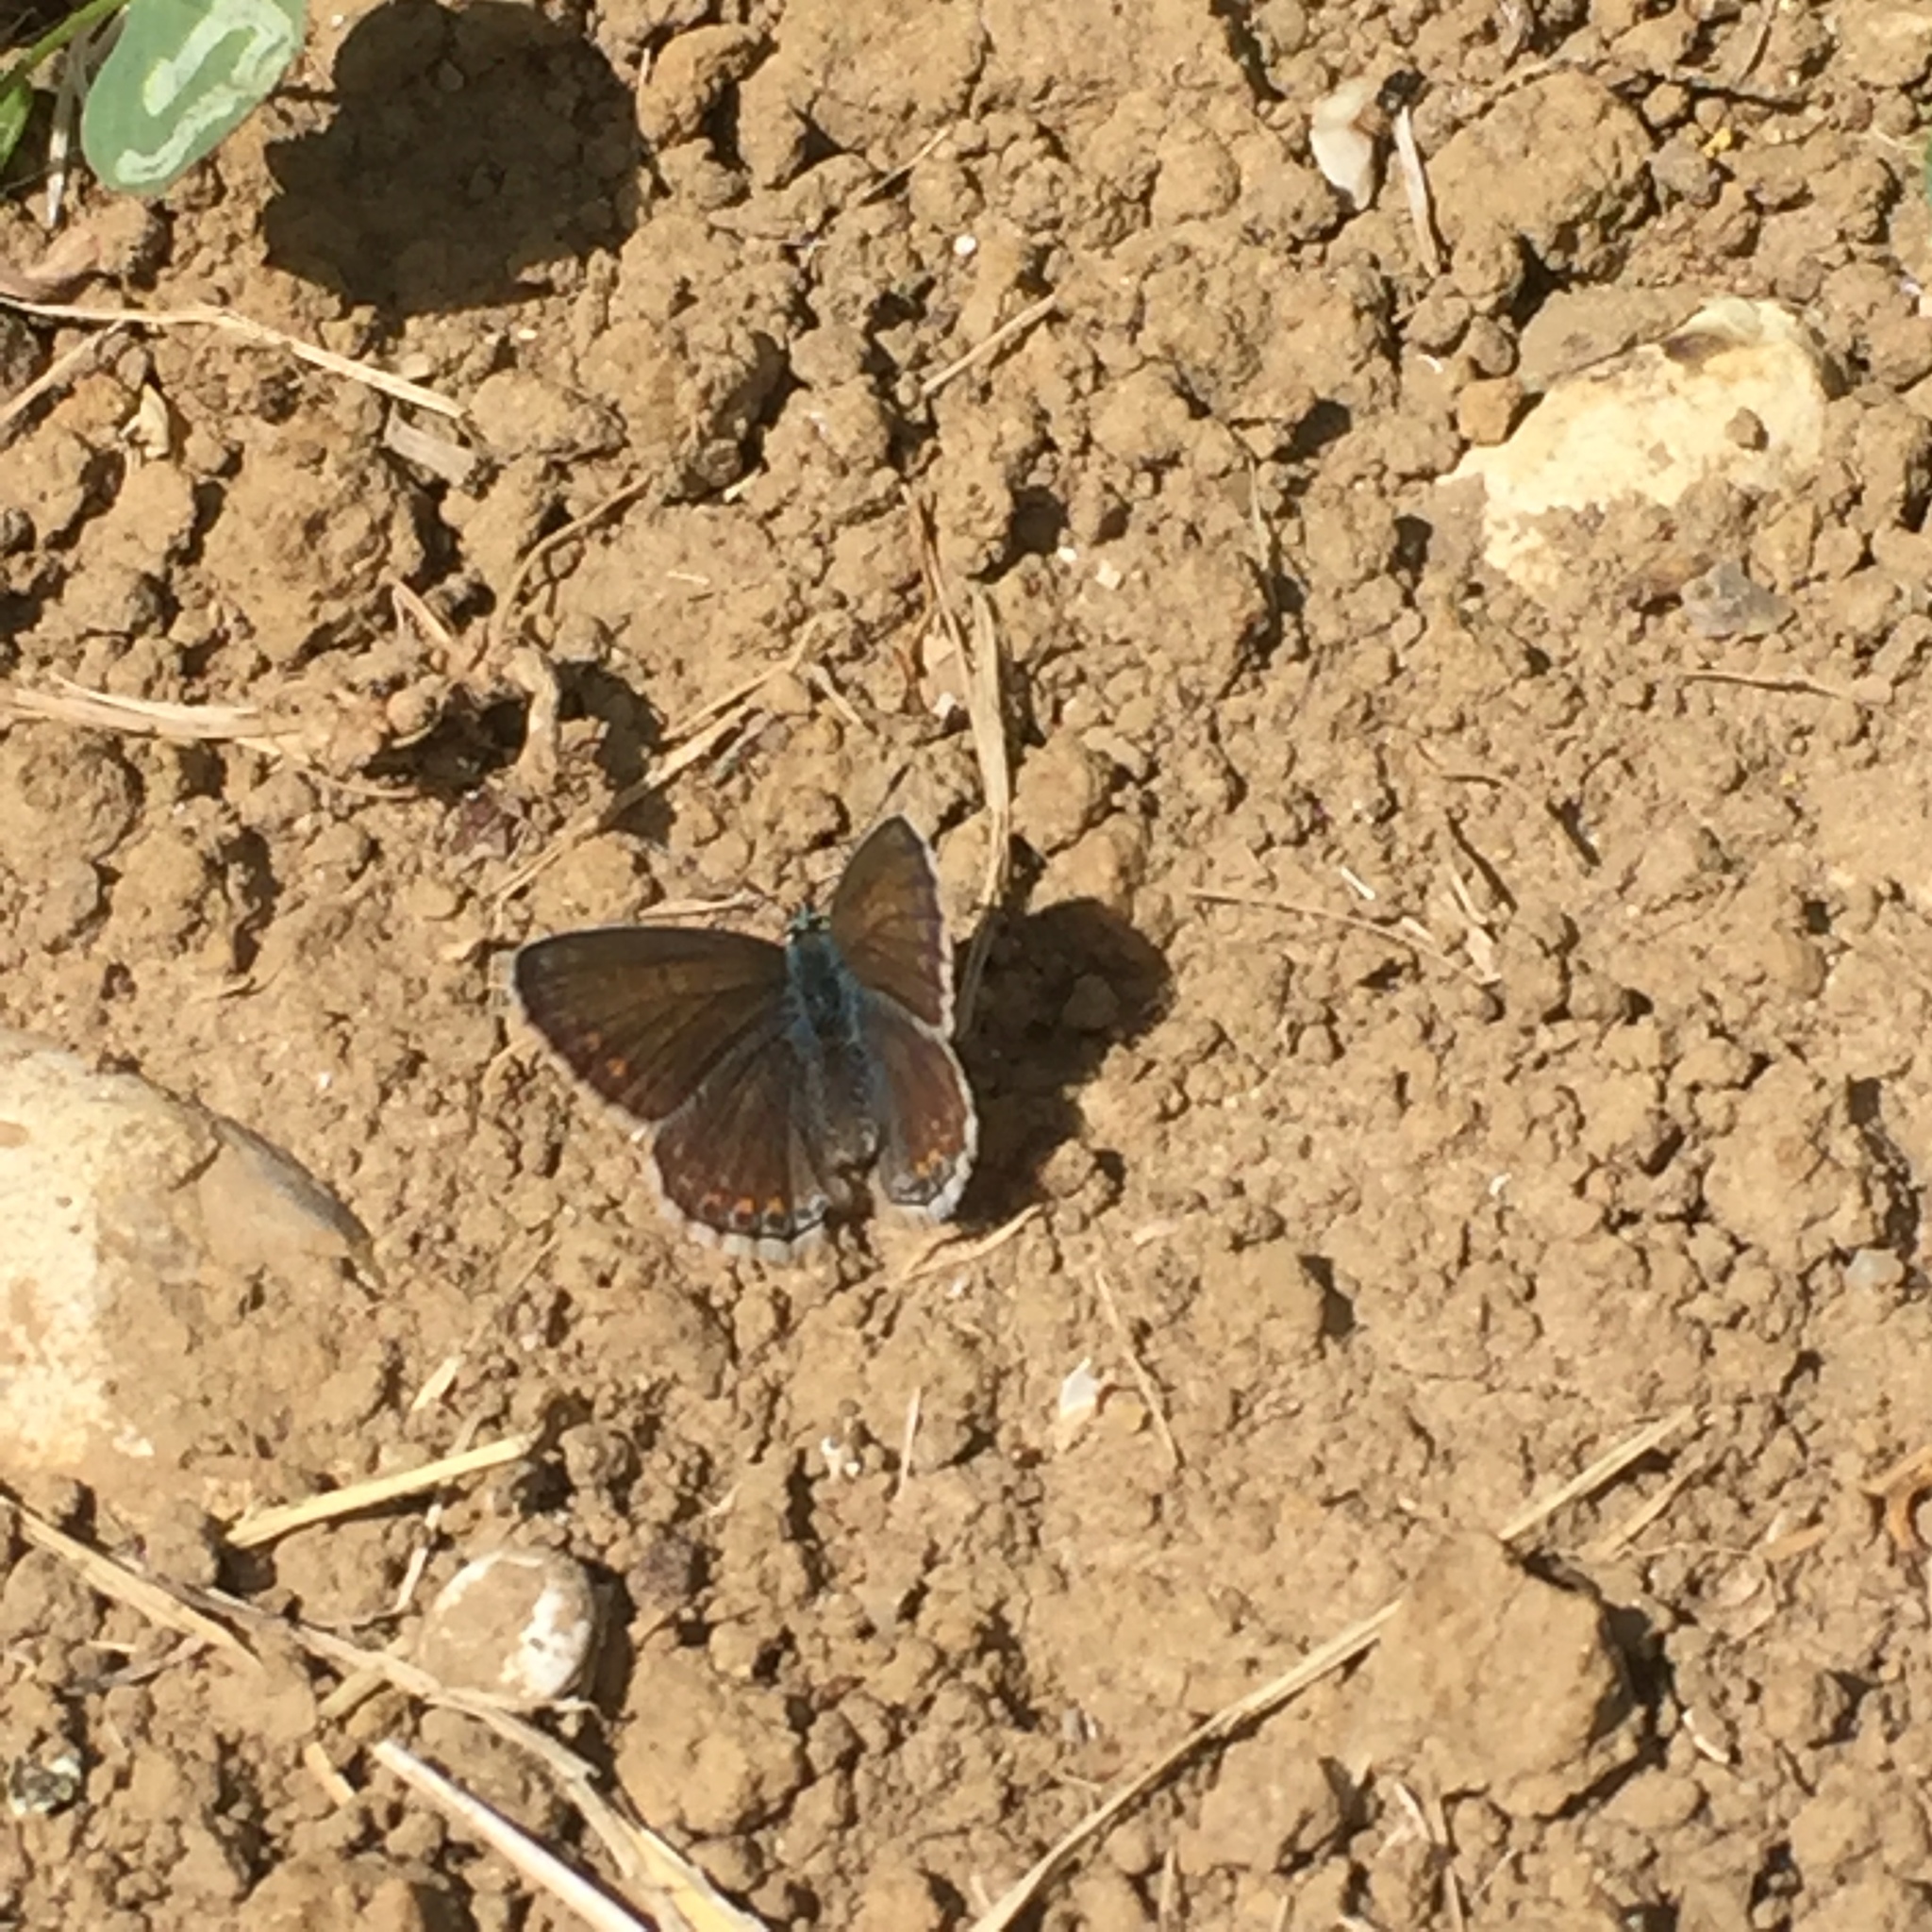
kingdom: Animalia
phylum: Arthropoda
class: Insecta
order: Lepidoptera
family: Lycaenidae
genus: Polyommatus
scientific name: Polyommatus icarus
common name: Common blue
